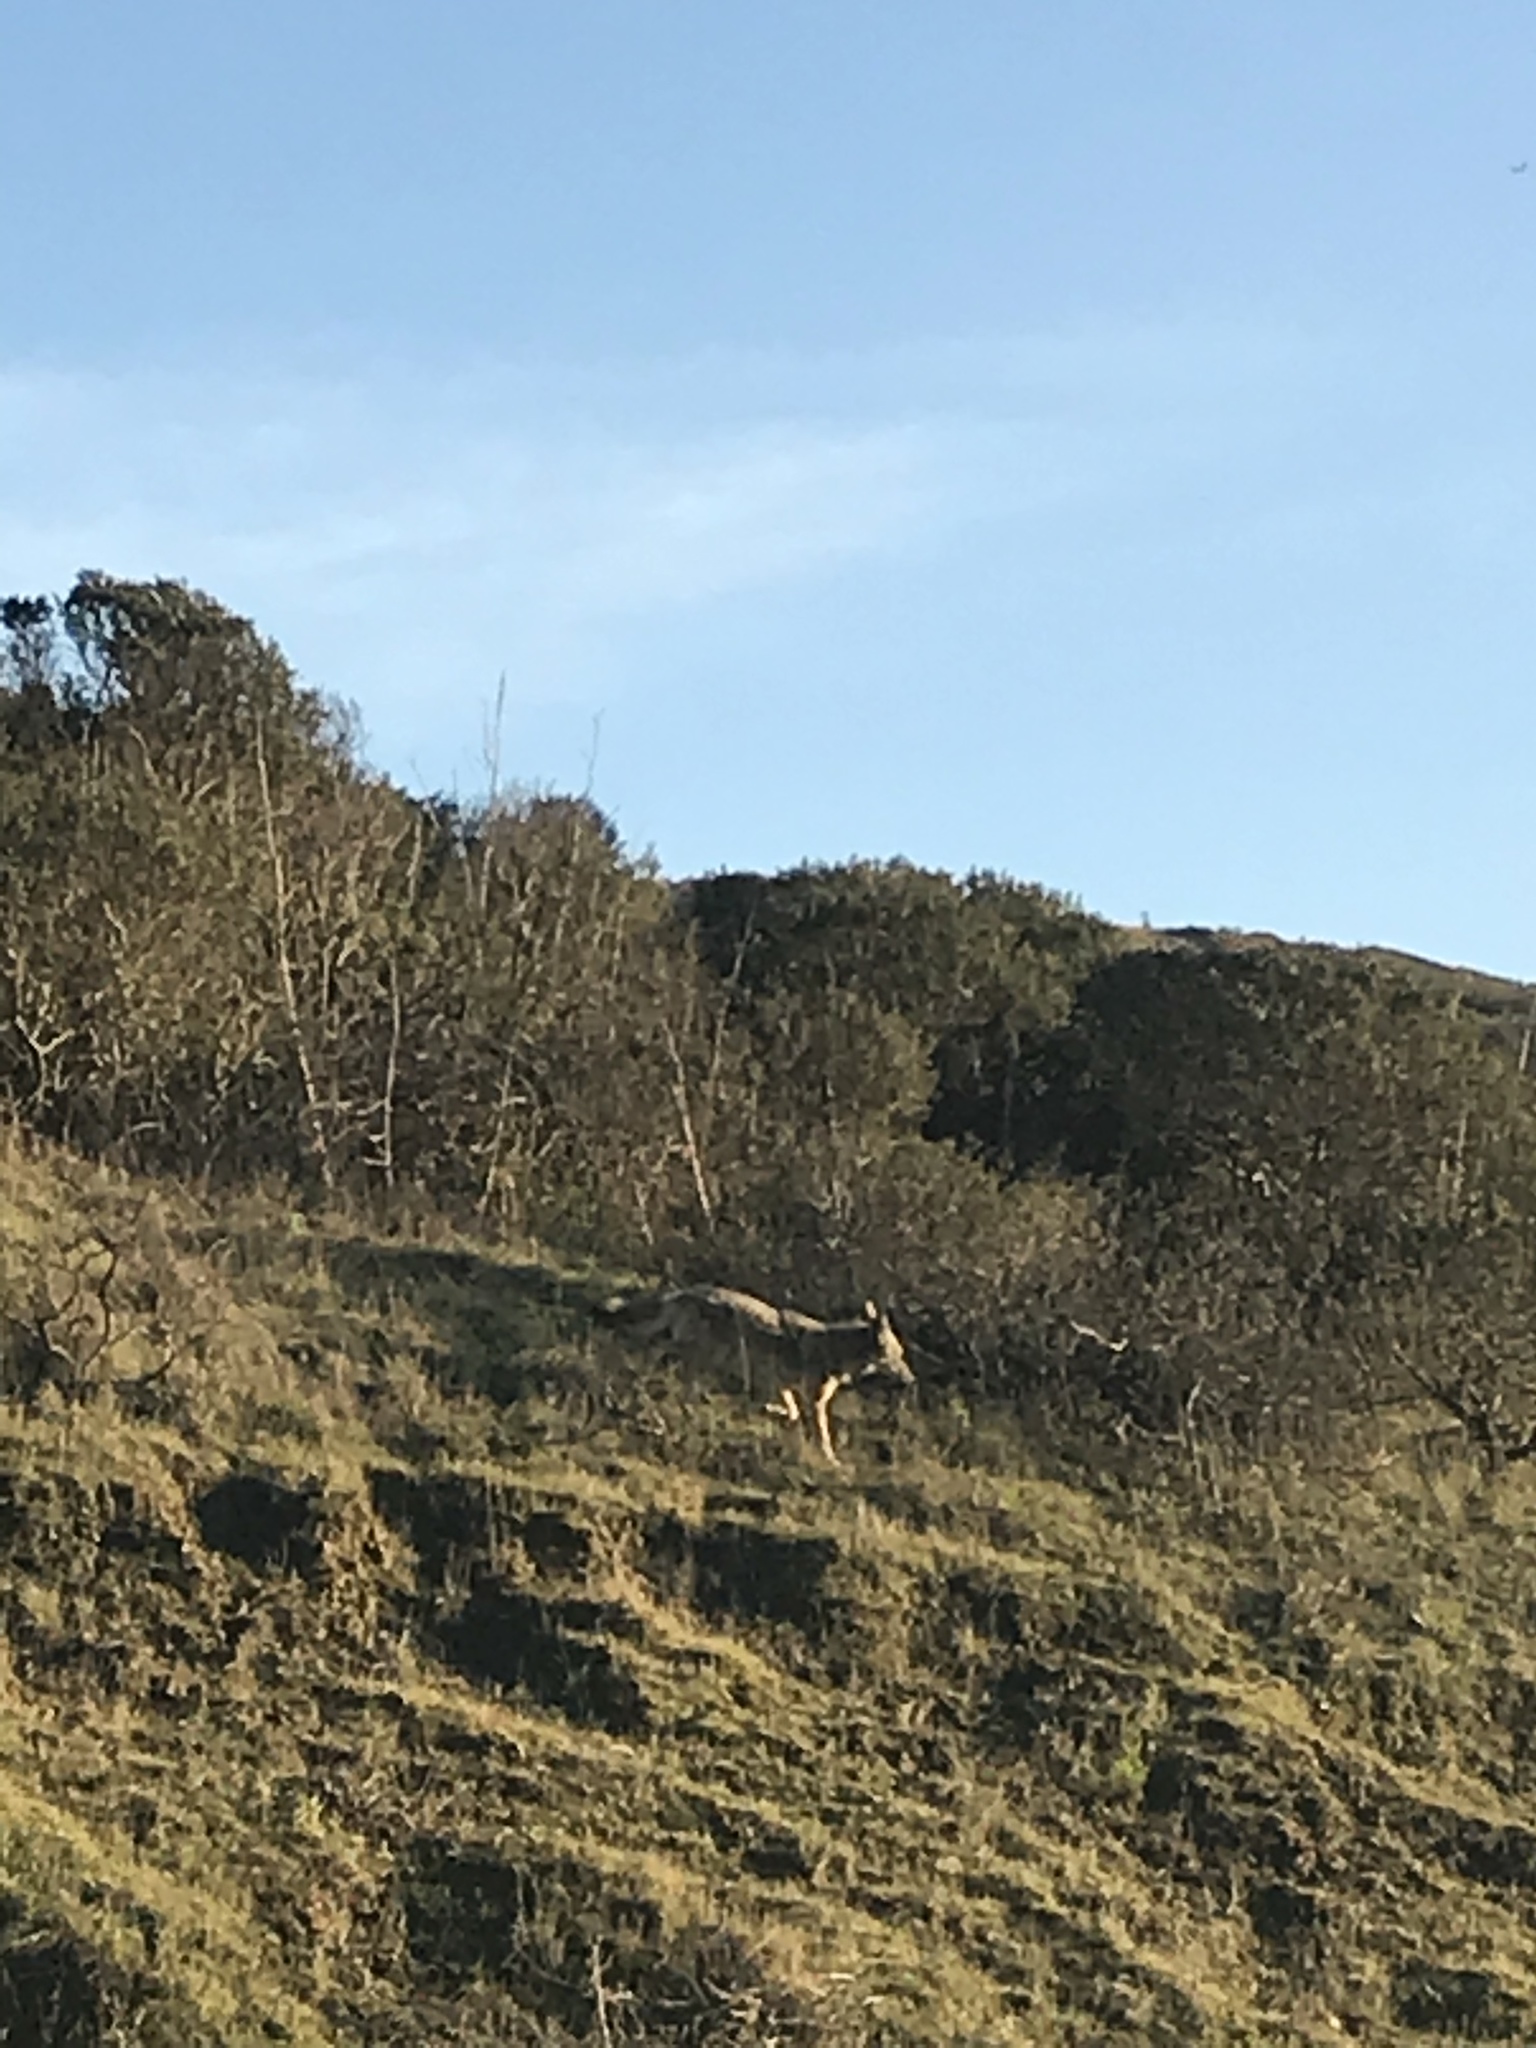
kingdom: Animalia
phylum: Chordata
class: Mammalia
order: Carnivora
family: Canidae
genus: Canis
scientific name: Canis latrans
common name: Coyote
